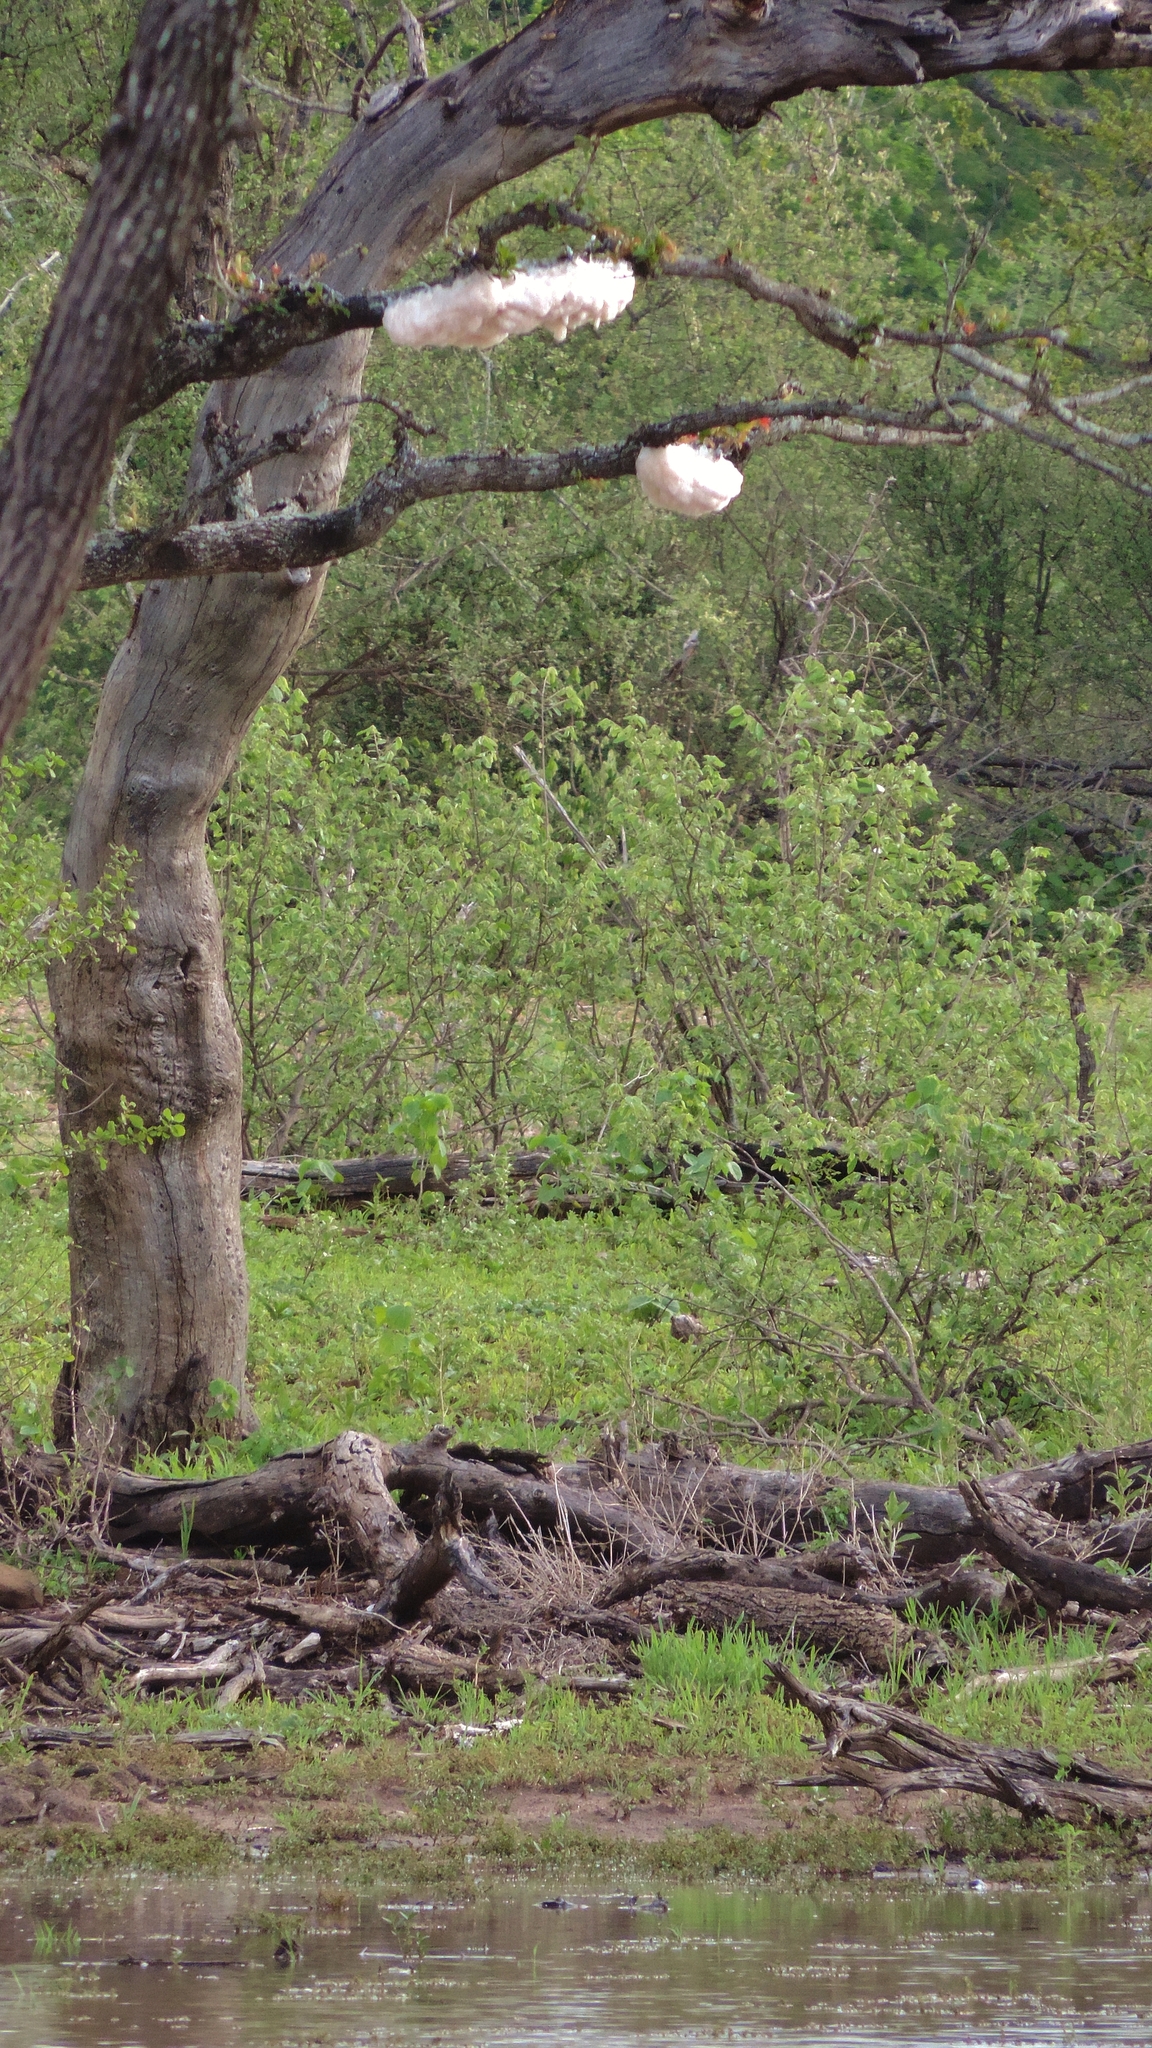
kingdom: Animalia
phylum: Chordata
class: Amphibia
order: Anura
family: Rhacophoridae
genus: Chiromantis
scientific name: Chiromantis xerampelina
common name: African gray treefrog
